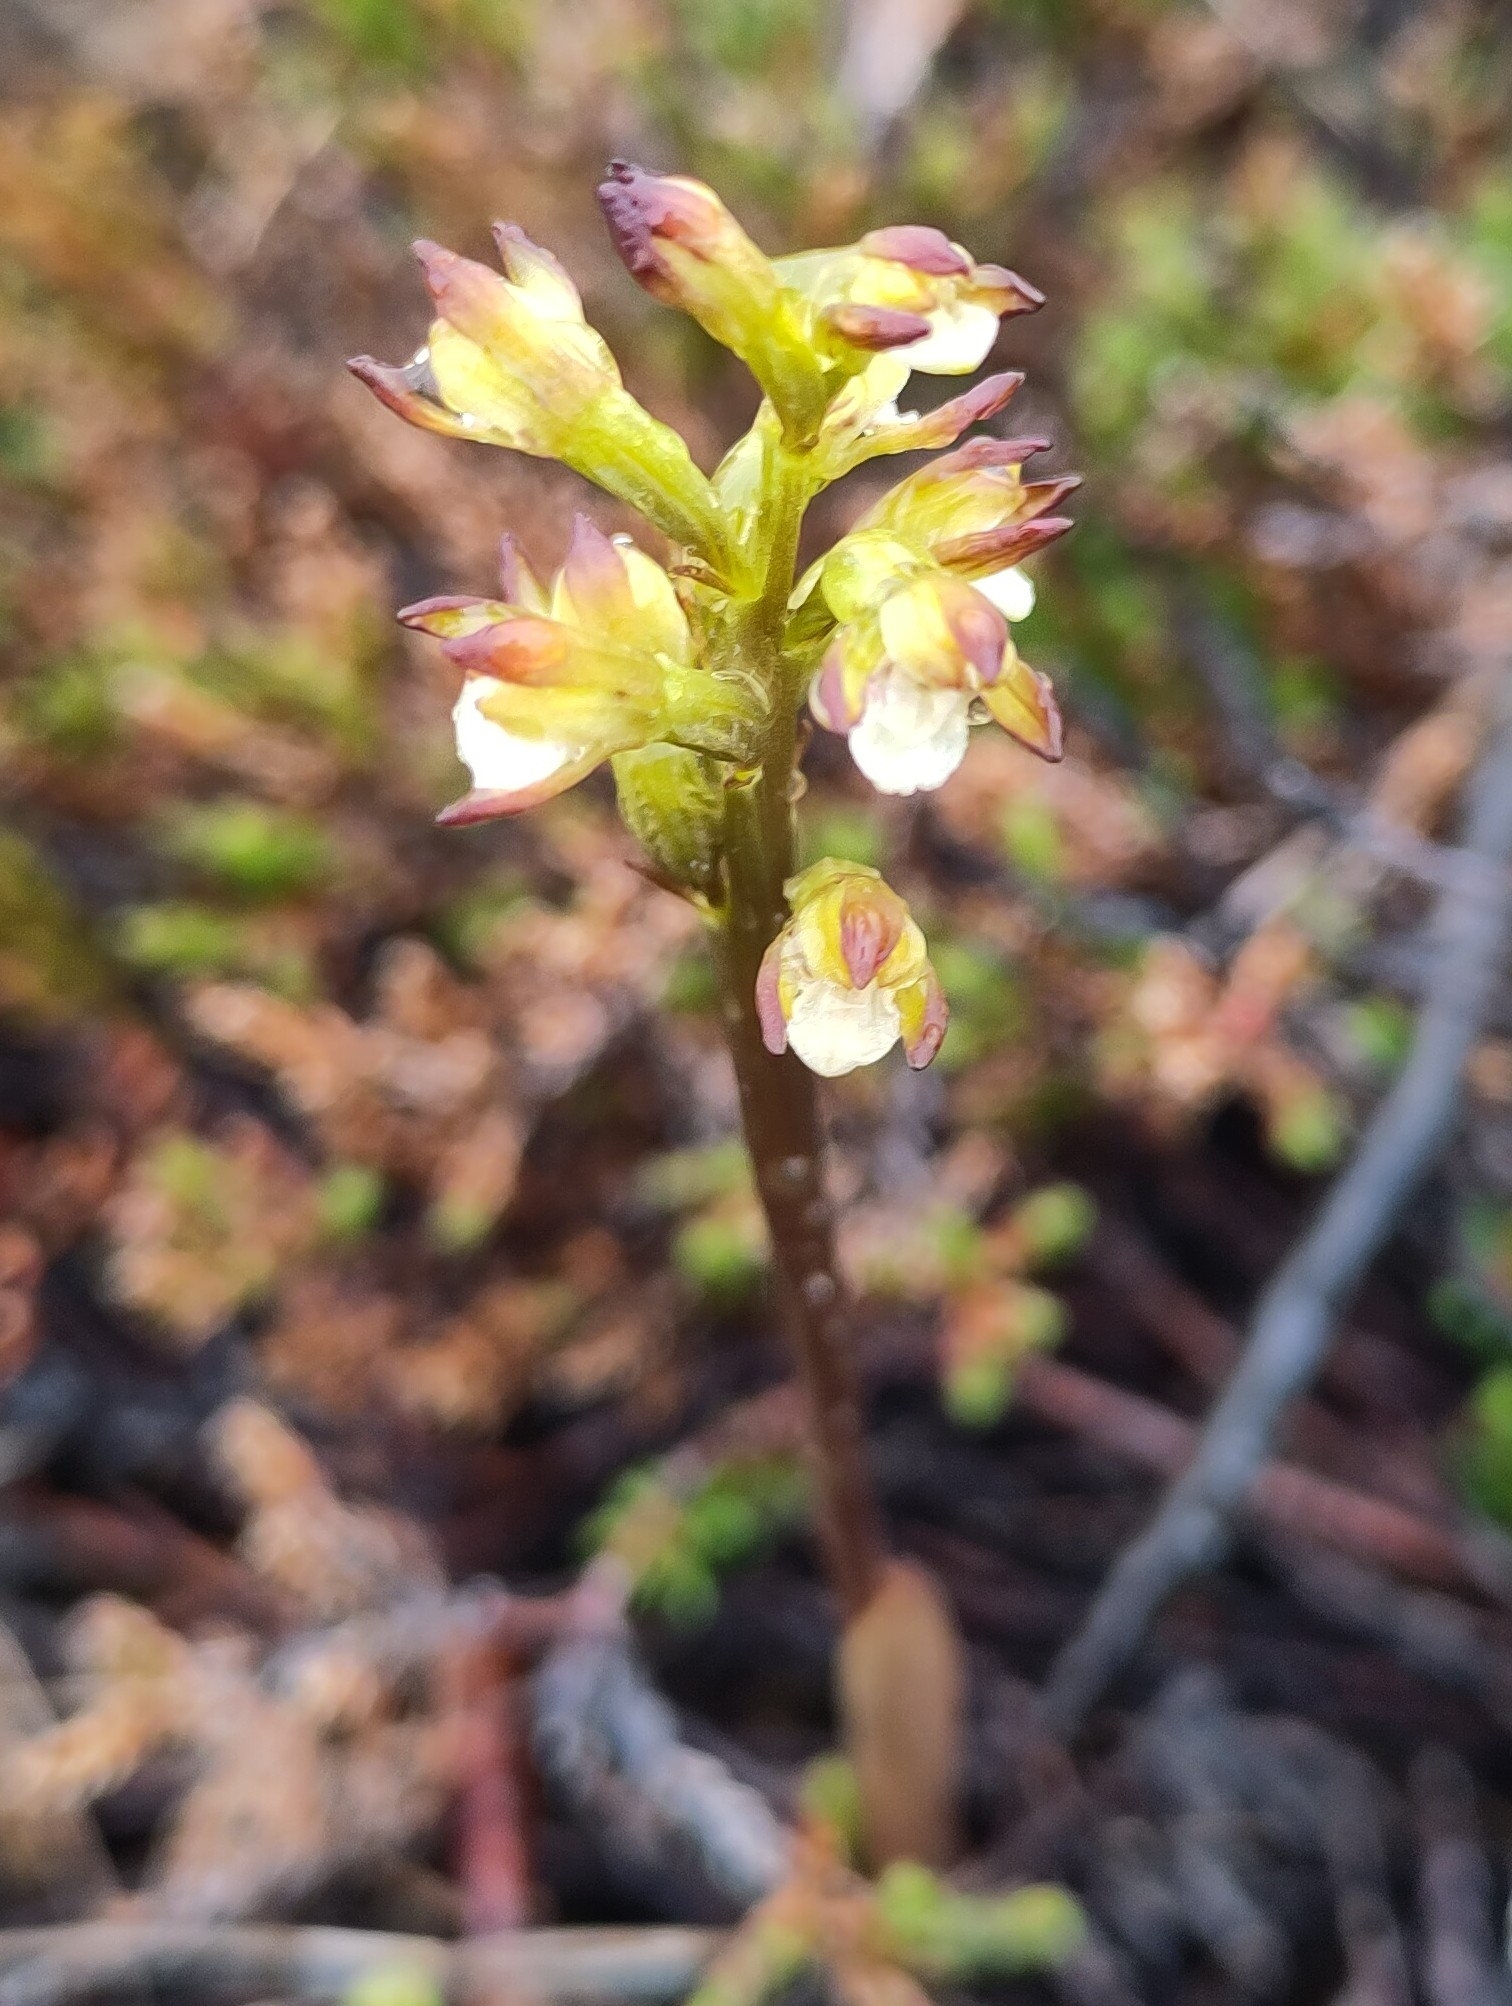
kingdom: Plantae
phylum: Tracheophyta
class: Liliopsida
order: Asparagales
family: Orchidaceae
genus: Corallorhiza
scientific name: Corallorhiza trifida
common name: Yellow coralroot
